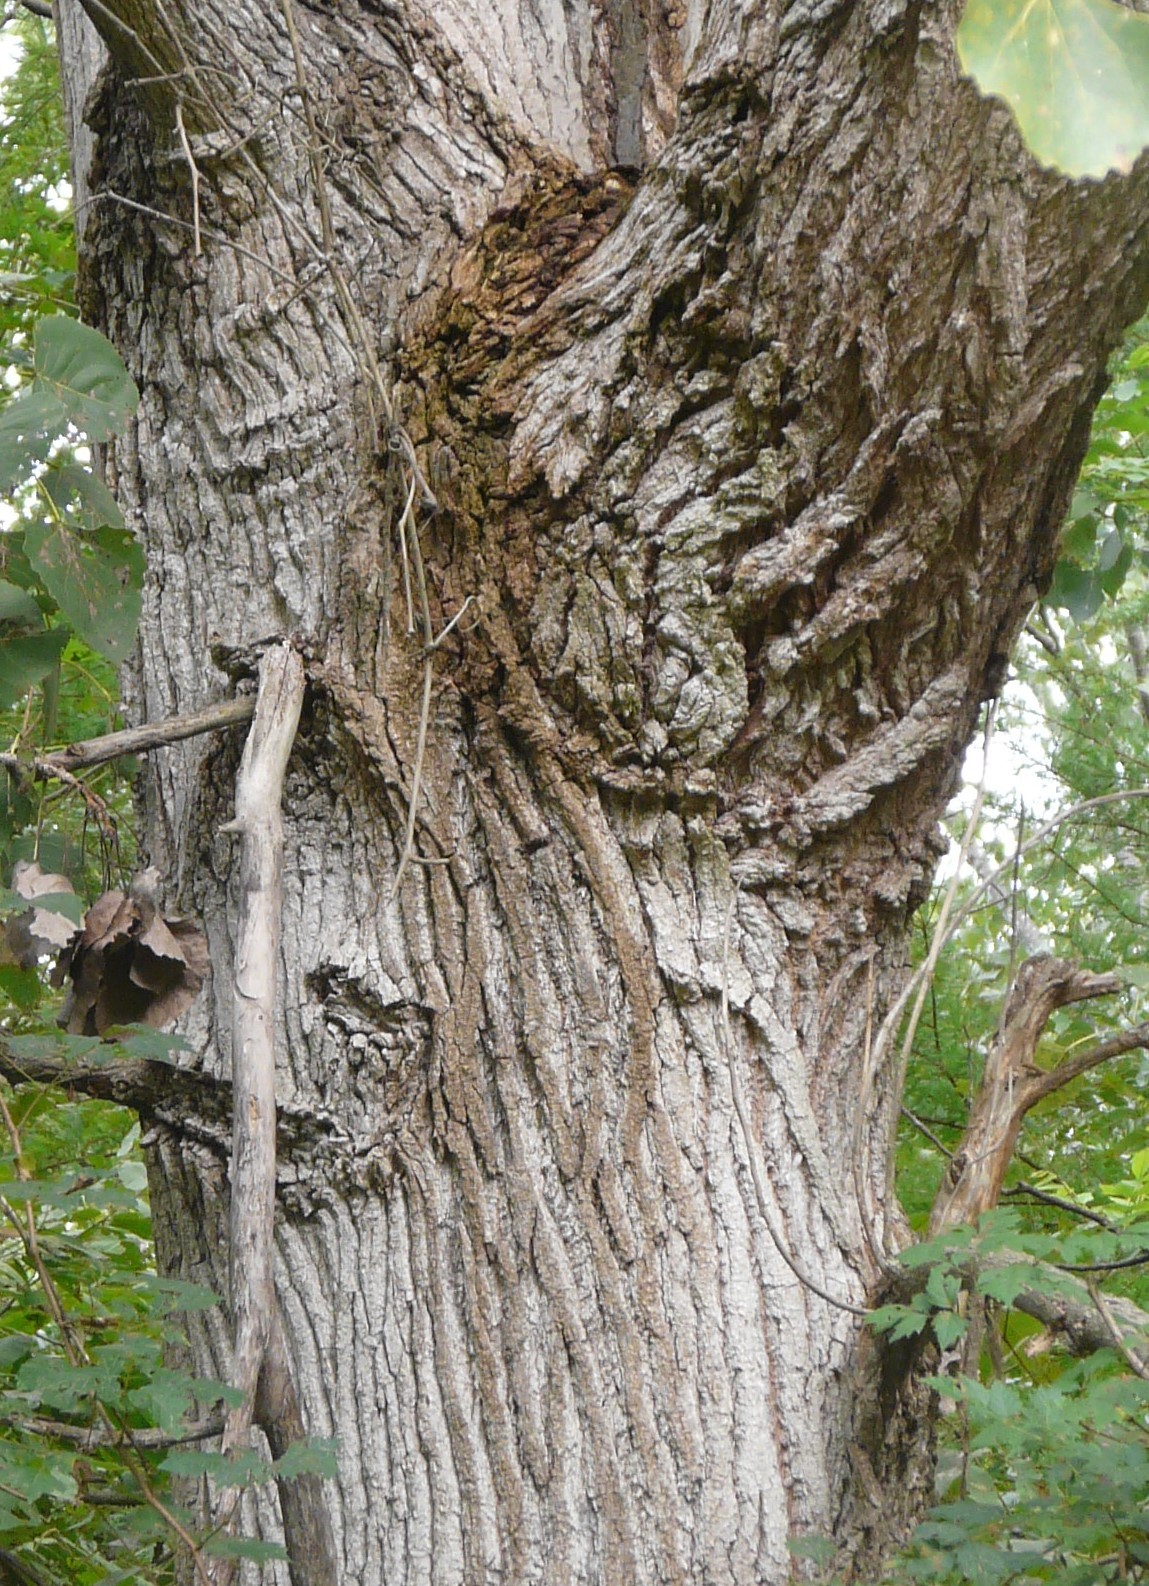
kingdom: Plantae
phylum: Tracheophyta
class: Magnoliopsida
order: Malpighiales
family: Salicaceae
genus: Populus
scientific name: Populus deltoides
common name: Eastern cottonwood
